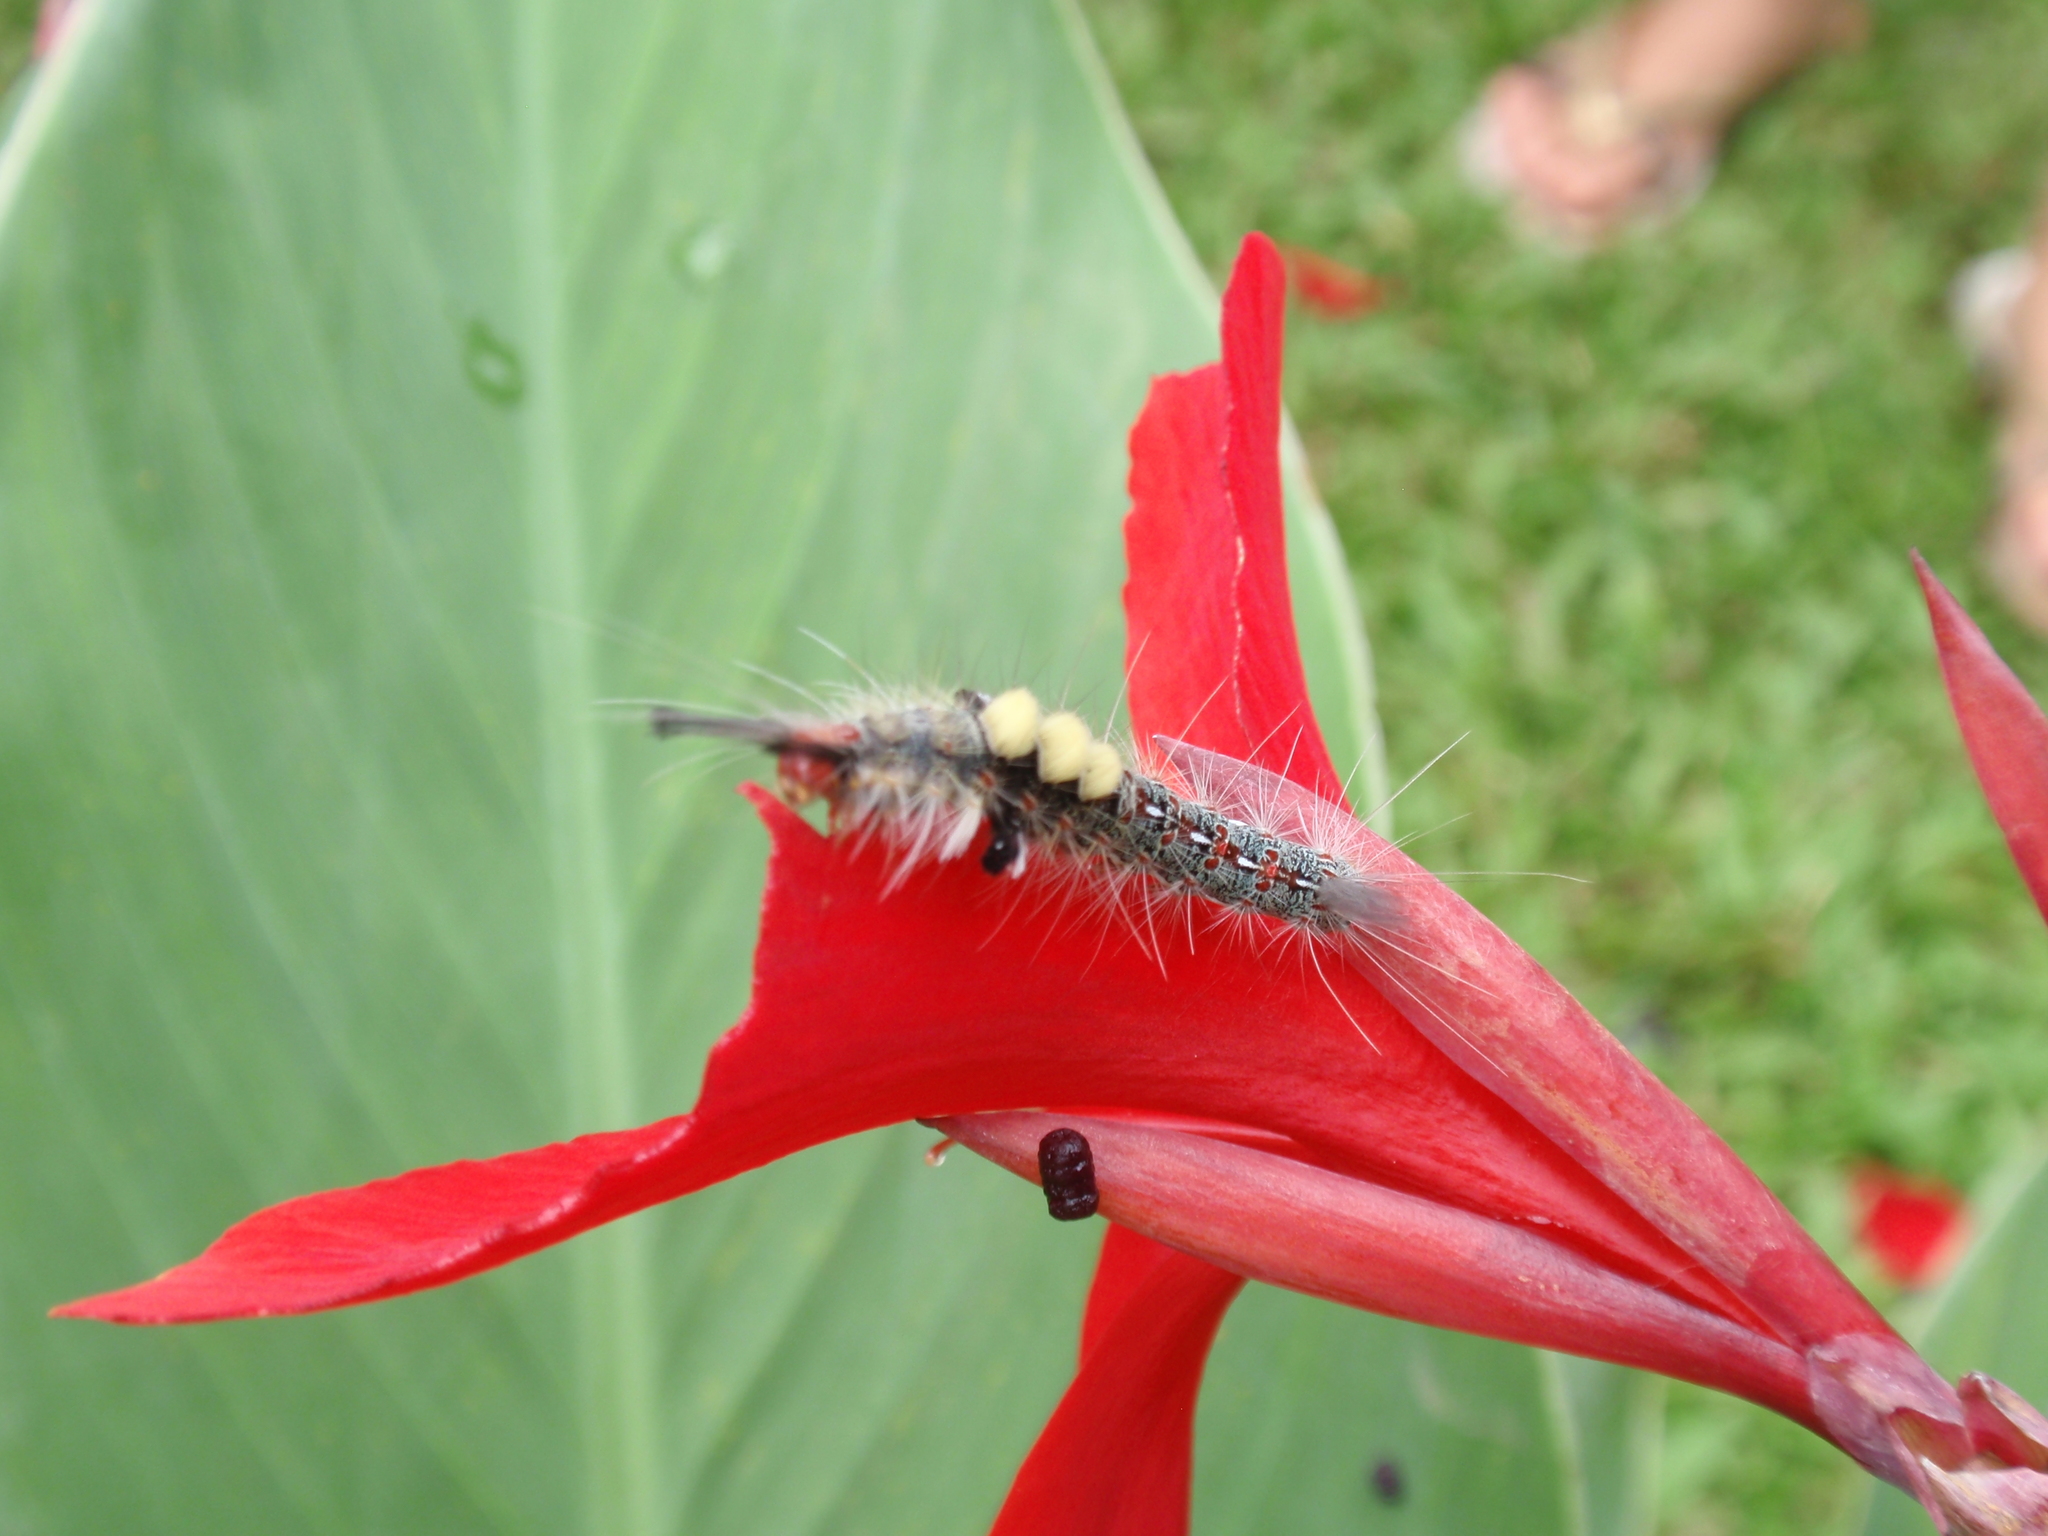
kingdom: Animalia
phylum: Arthropoda
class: Insecta
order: Lepidoptera
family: Erebidae
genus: Olene
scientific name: Olene mendosa
